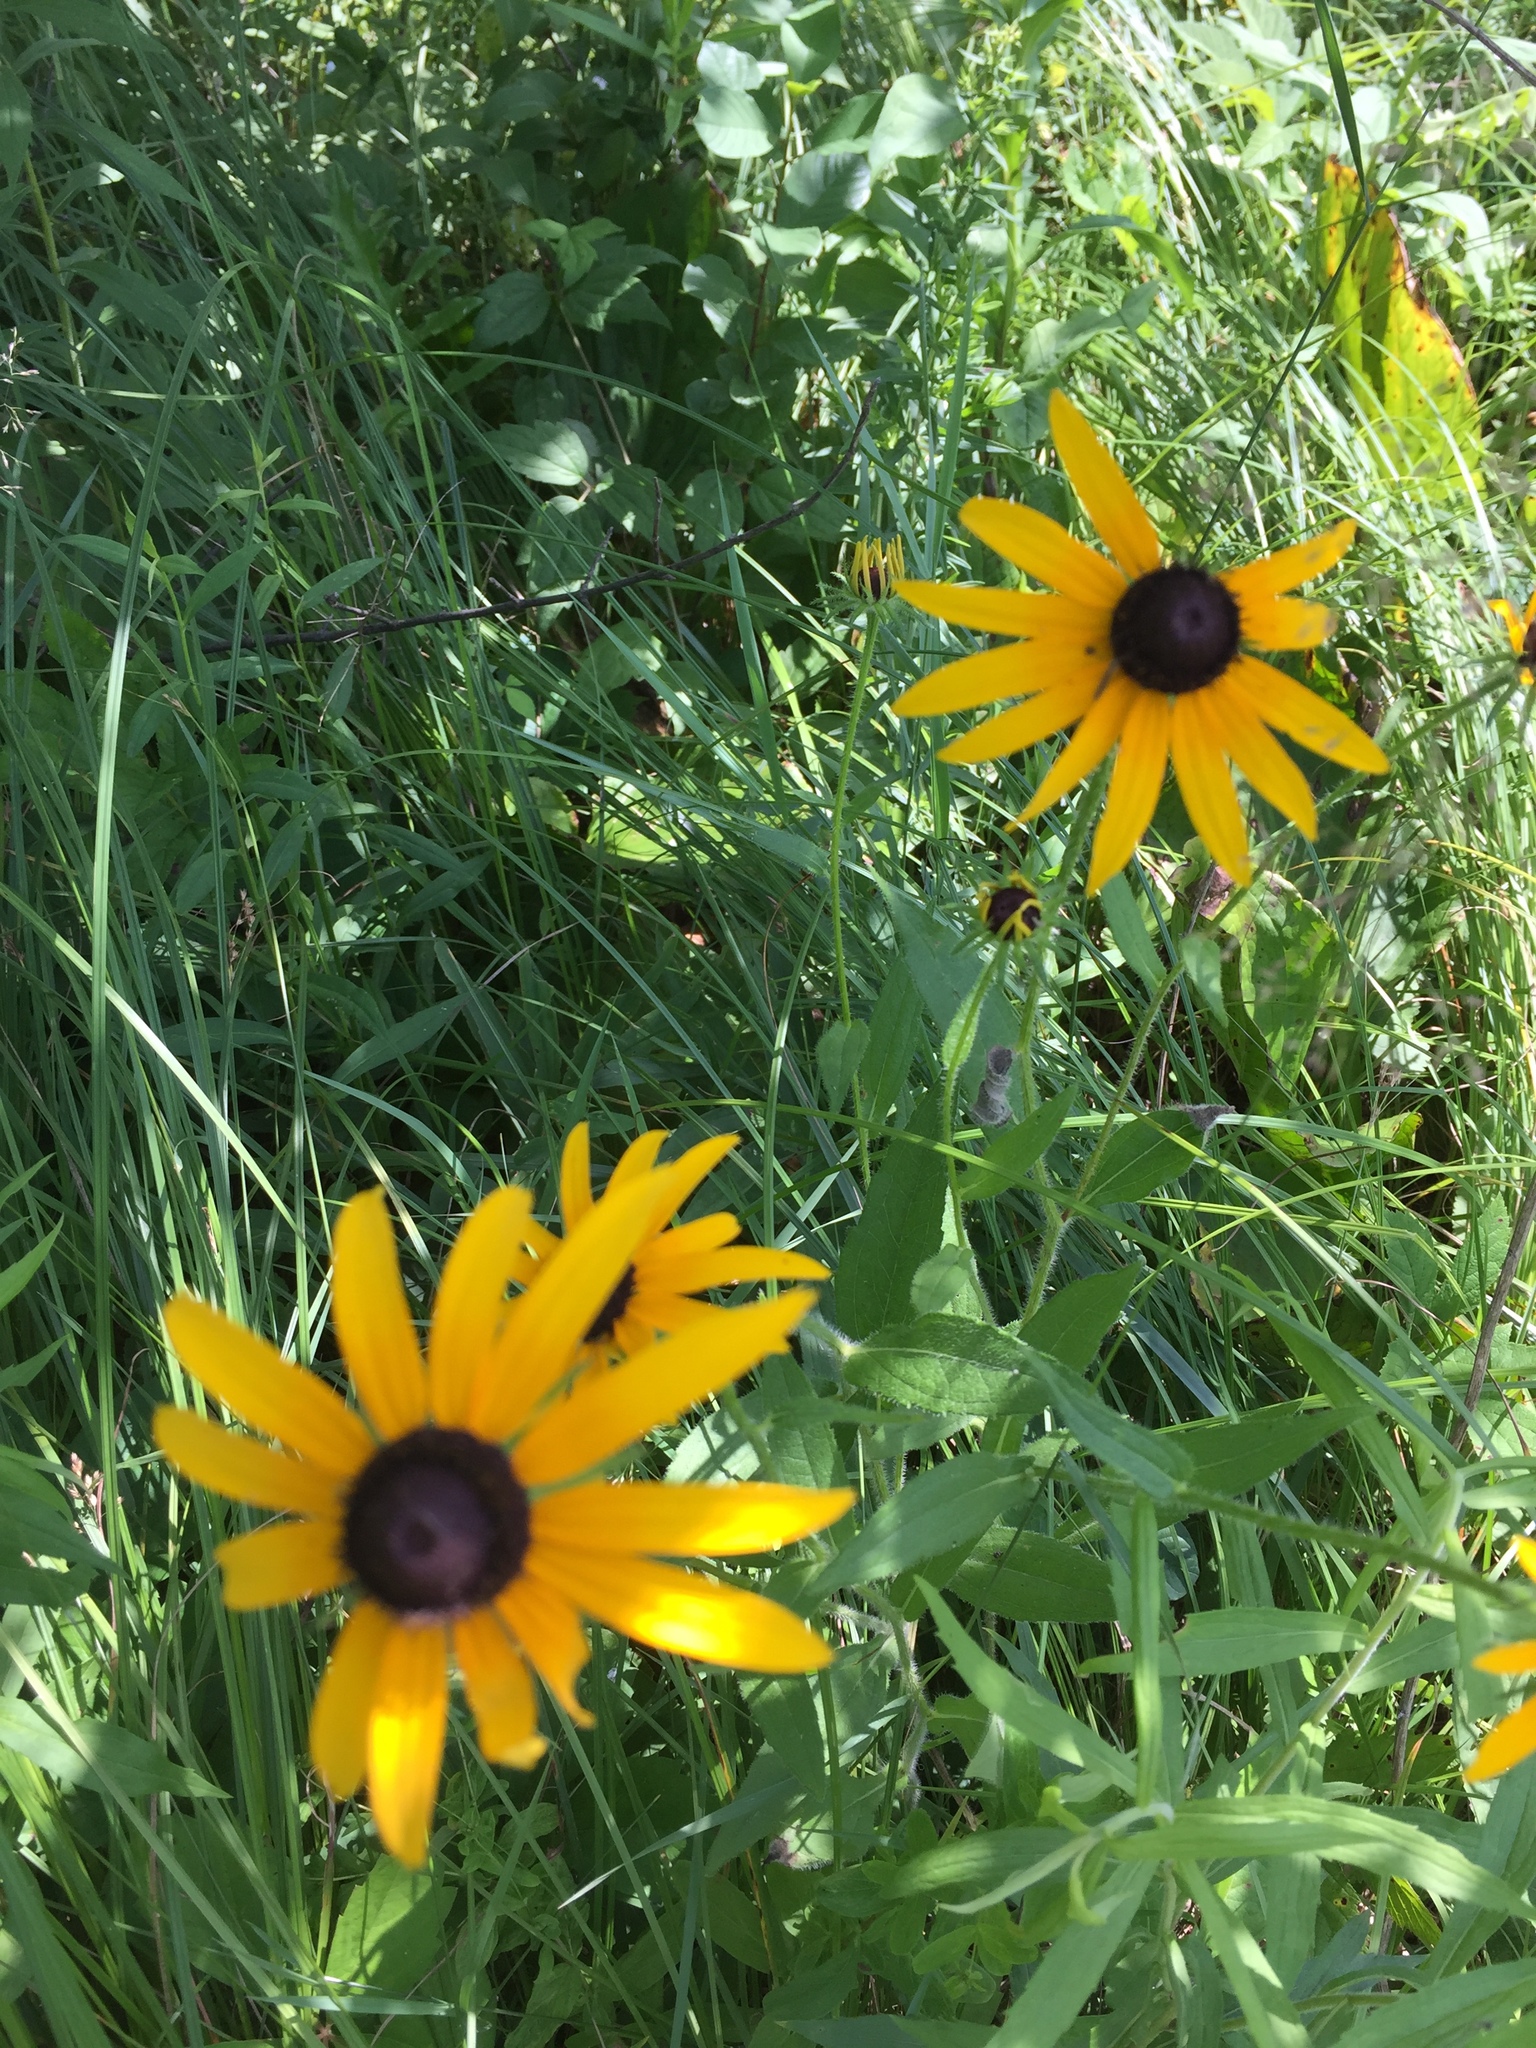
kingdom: Plantae
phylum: Tracheophyta
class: Magnoliopsida
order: Asterales
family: Asteraceae
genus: Rudbeckia
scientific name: Rudbeckia hirta
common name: Black-eyed-susan
